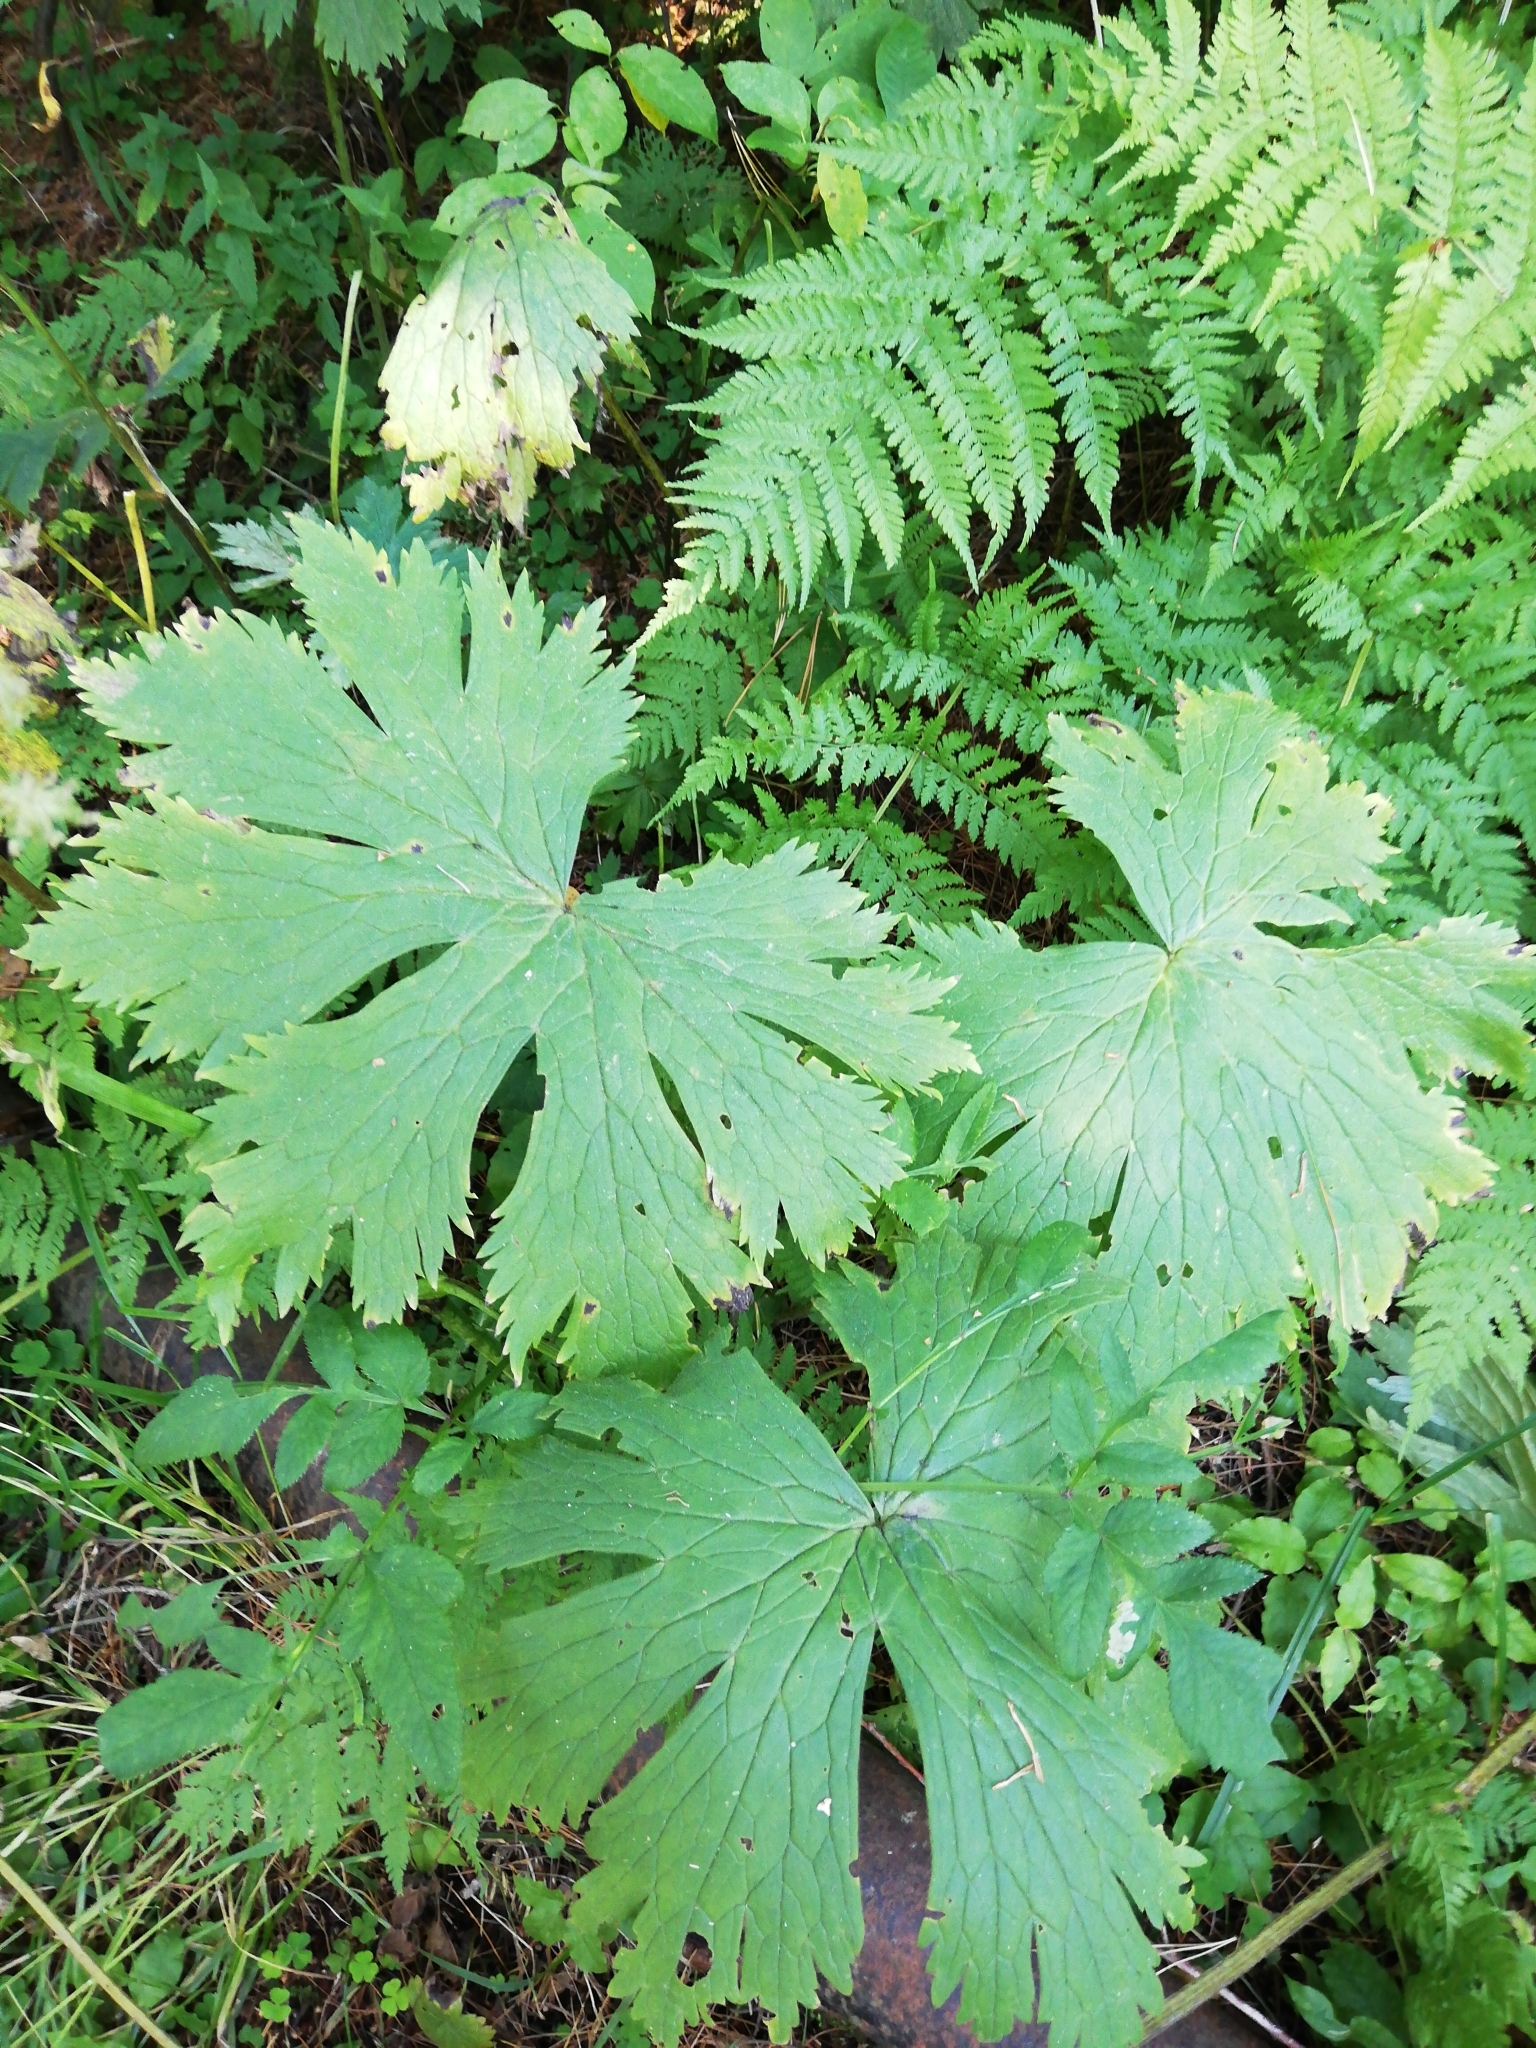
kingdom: Plantae
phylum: Tracheophyta
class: Magnoliopsida
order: Ranunculales
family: Ranunculaceae
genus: Aconitum
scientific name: Aconitum septentrionale
